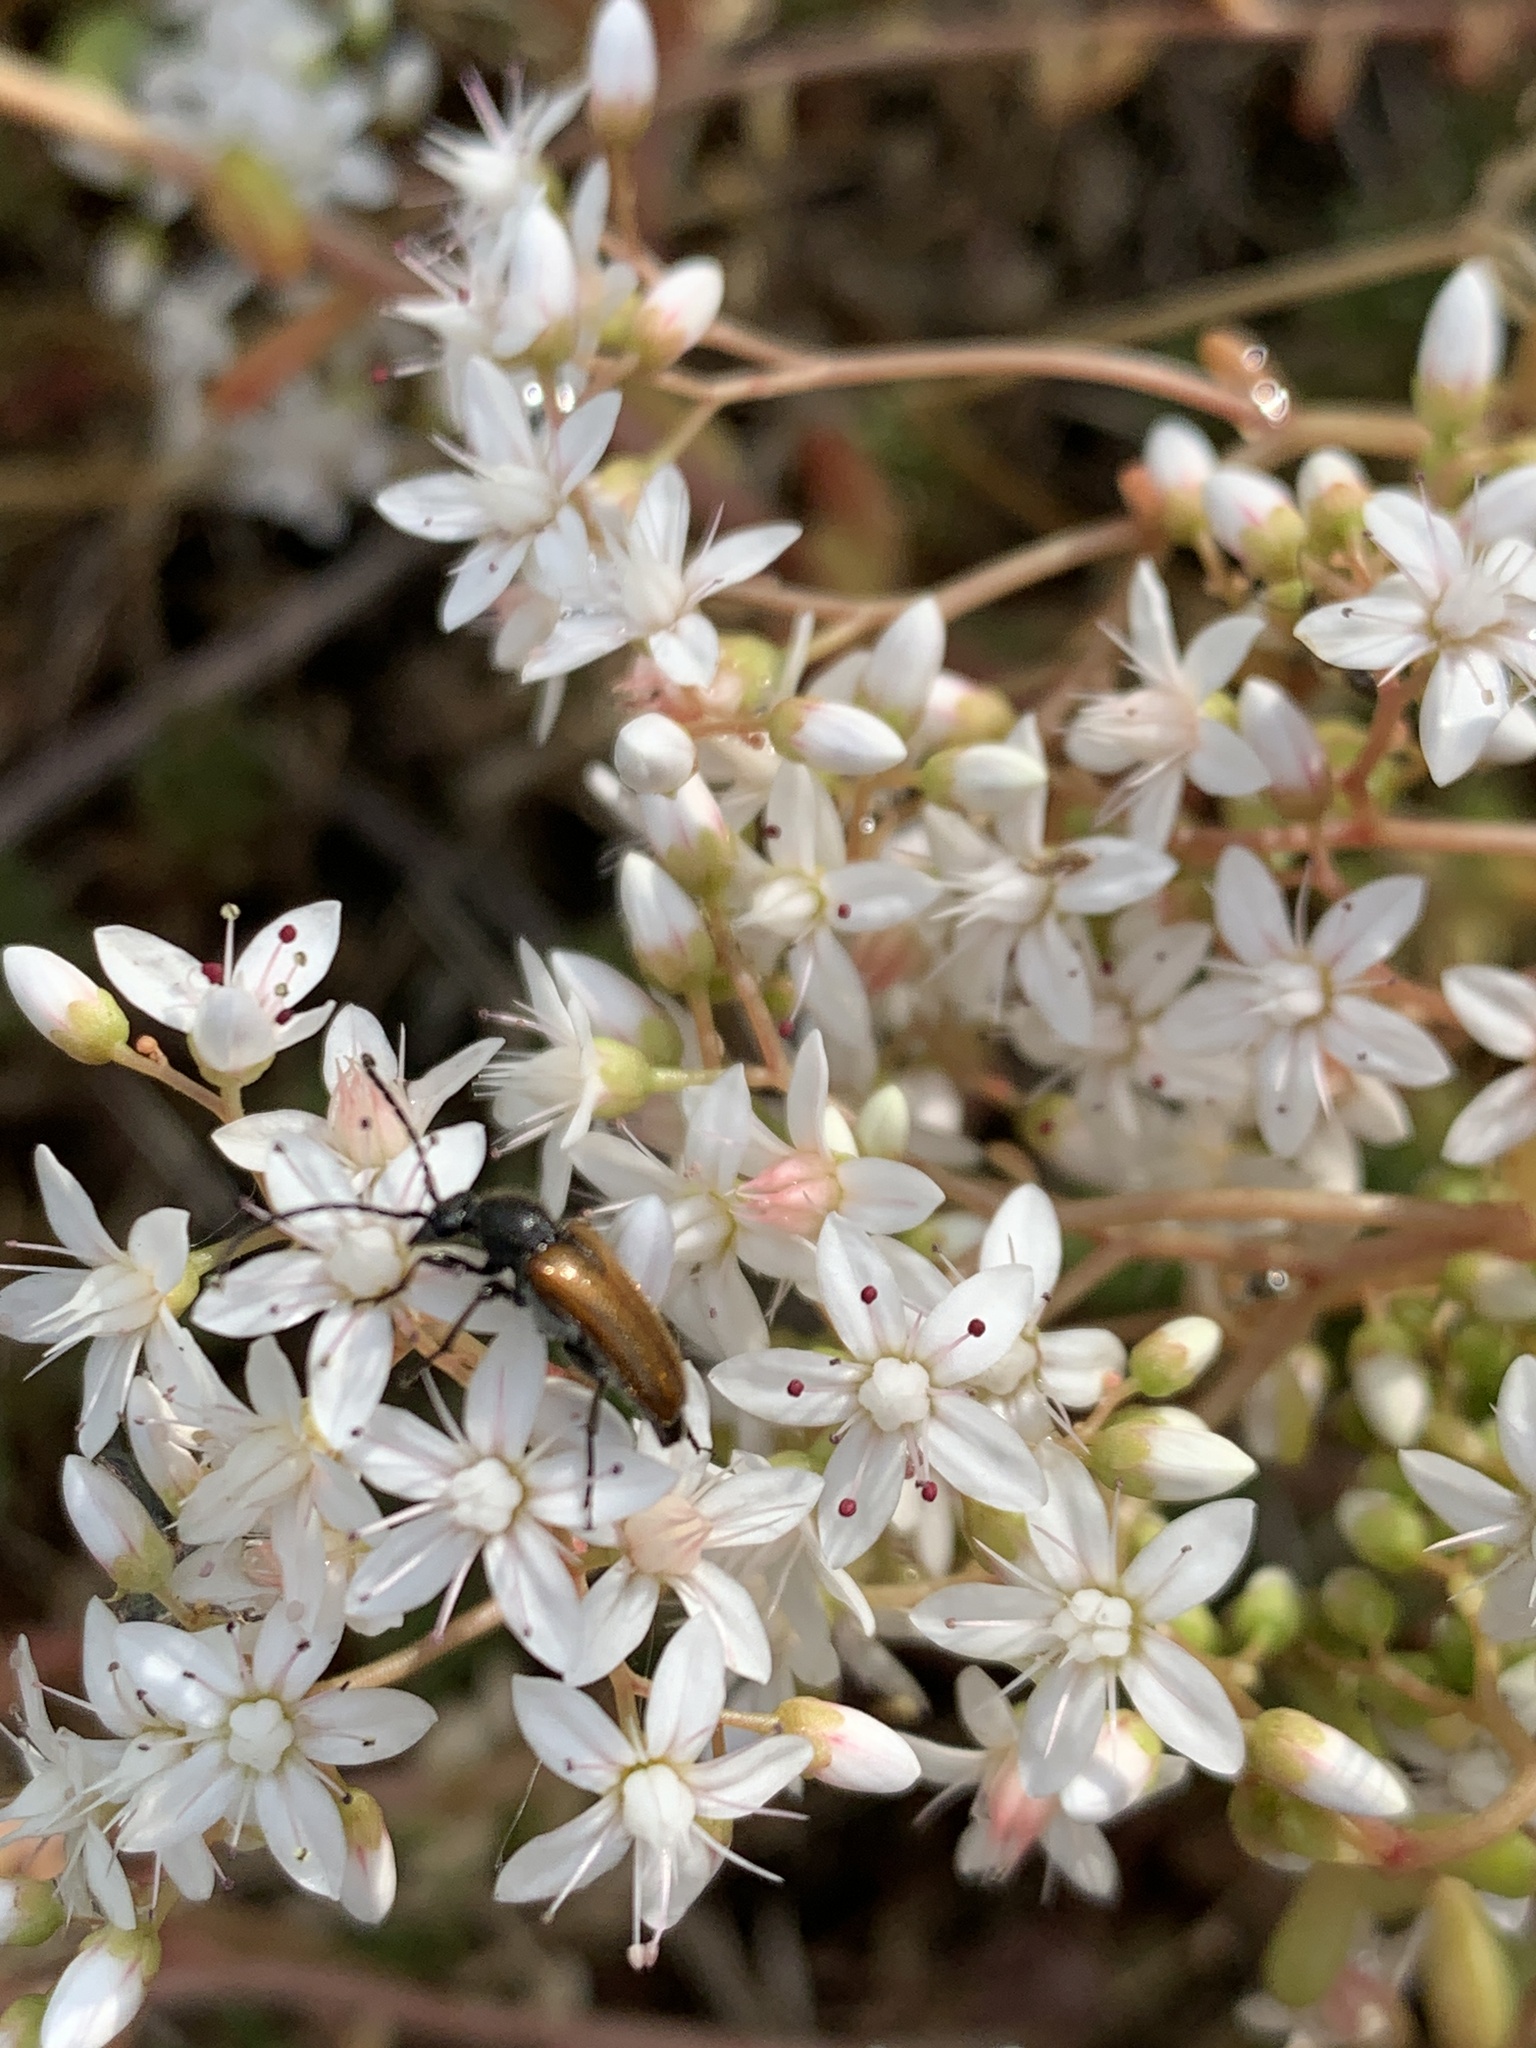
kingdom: Animalia
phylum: Arthropoda
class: Insecta
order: Coleoptera
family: Cerambycidae
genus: Pseudovadonia
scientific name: Pseudovadonia livida
